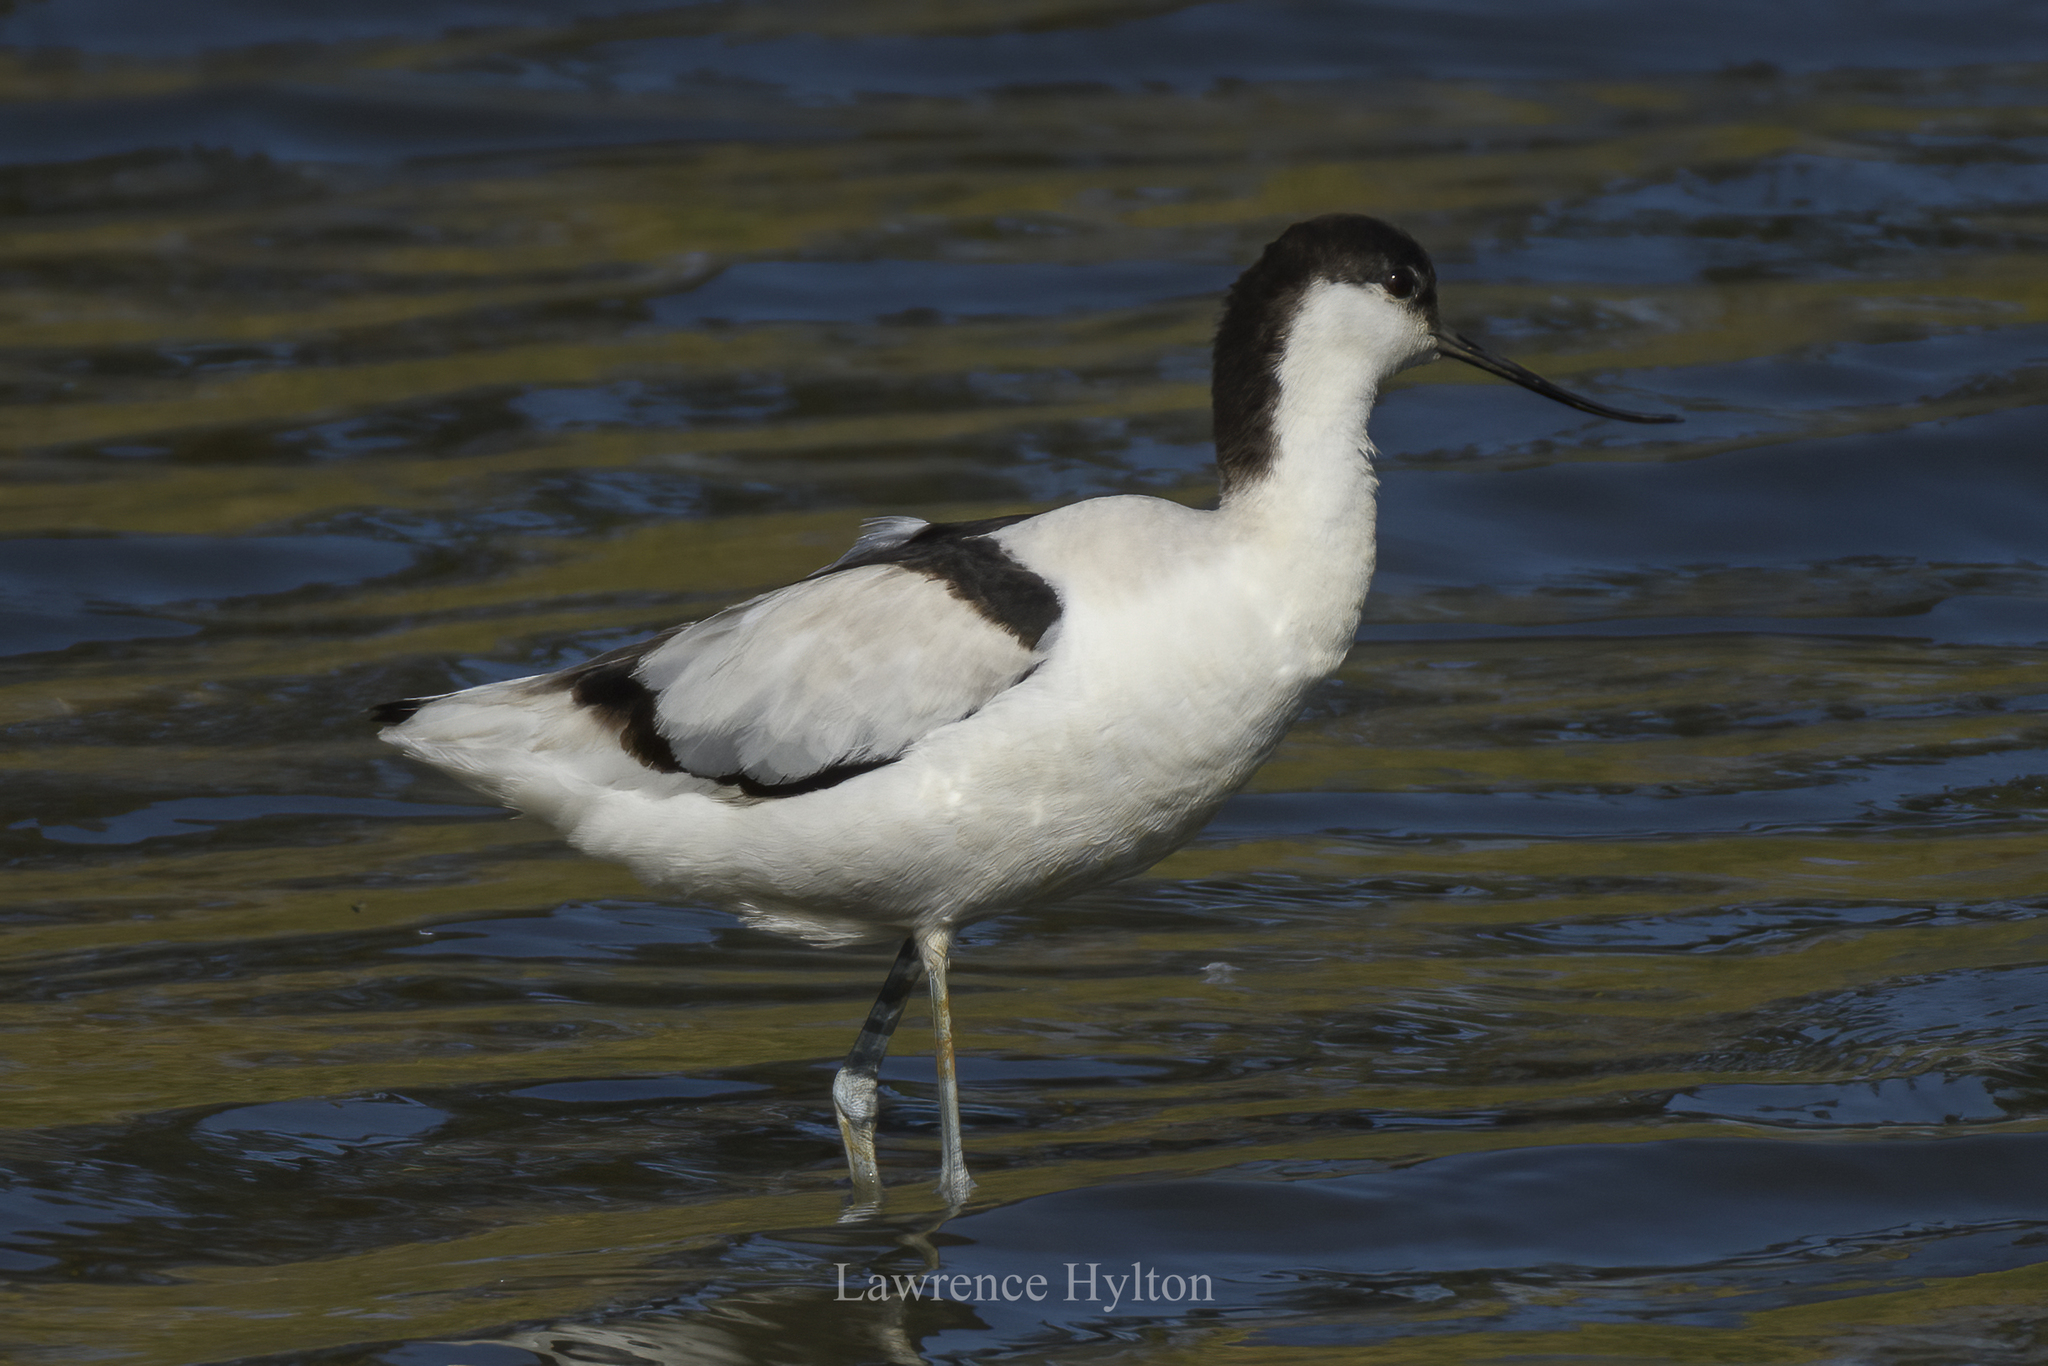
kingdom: Animalia
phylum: Chordata
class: Aves
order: Charadriiformes
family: Recurvirostridae
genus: Recurvirostra
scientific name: Recurvirostra avosetta
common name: Pied avocet
